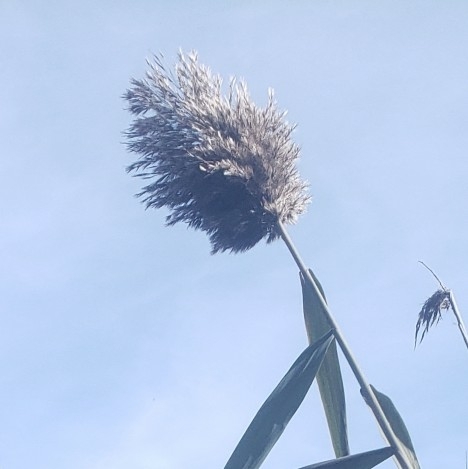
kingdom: Plantae
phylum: Tracheophyta
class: Liliopsida
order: Poales
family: Poaceae
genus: Phragmites
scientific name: Phragmites australis
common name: Common reed
